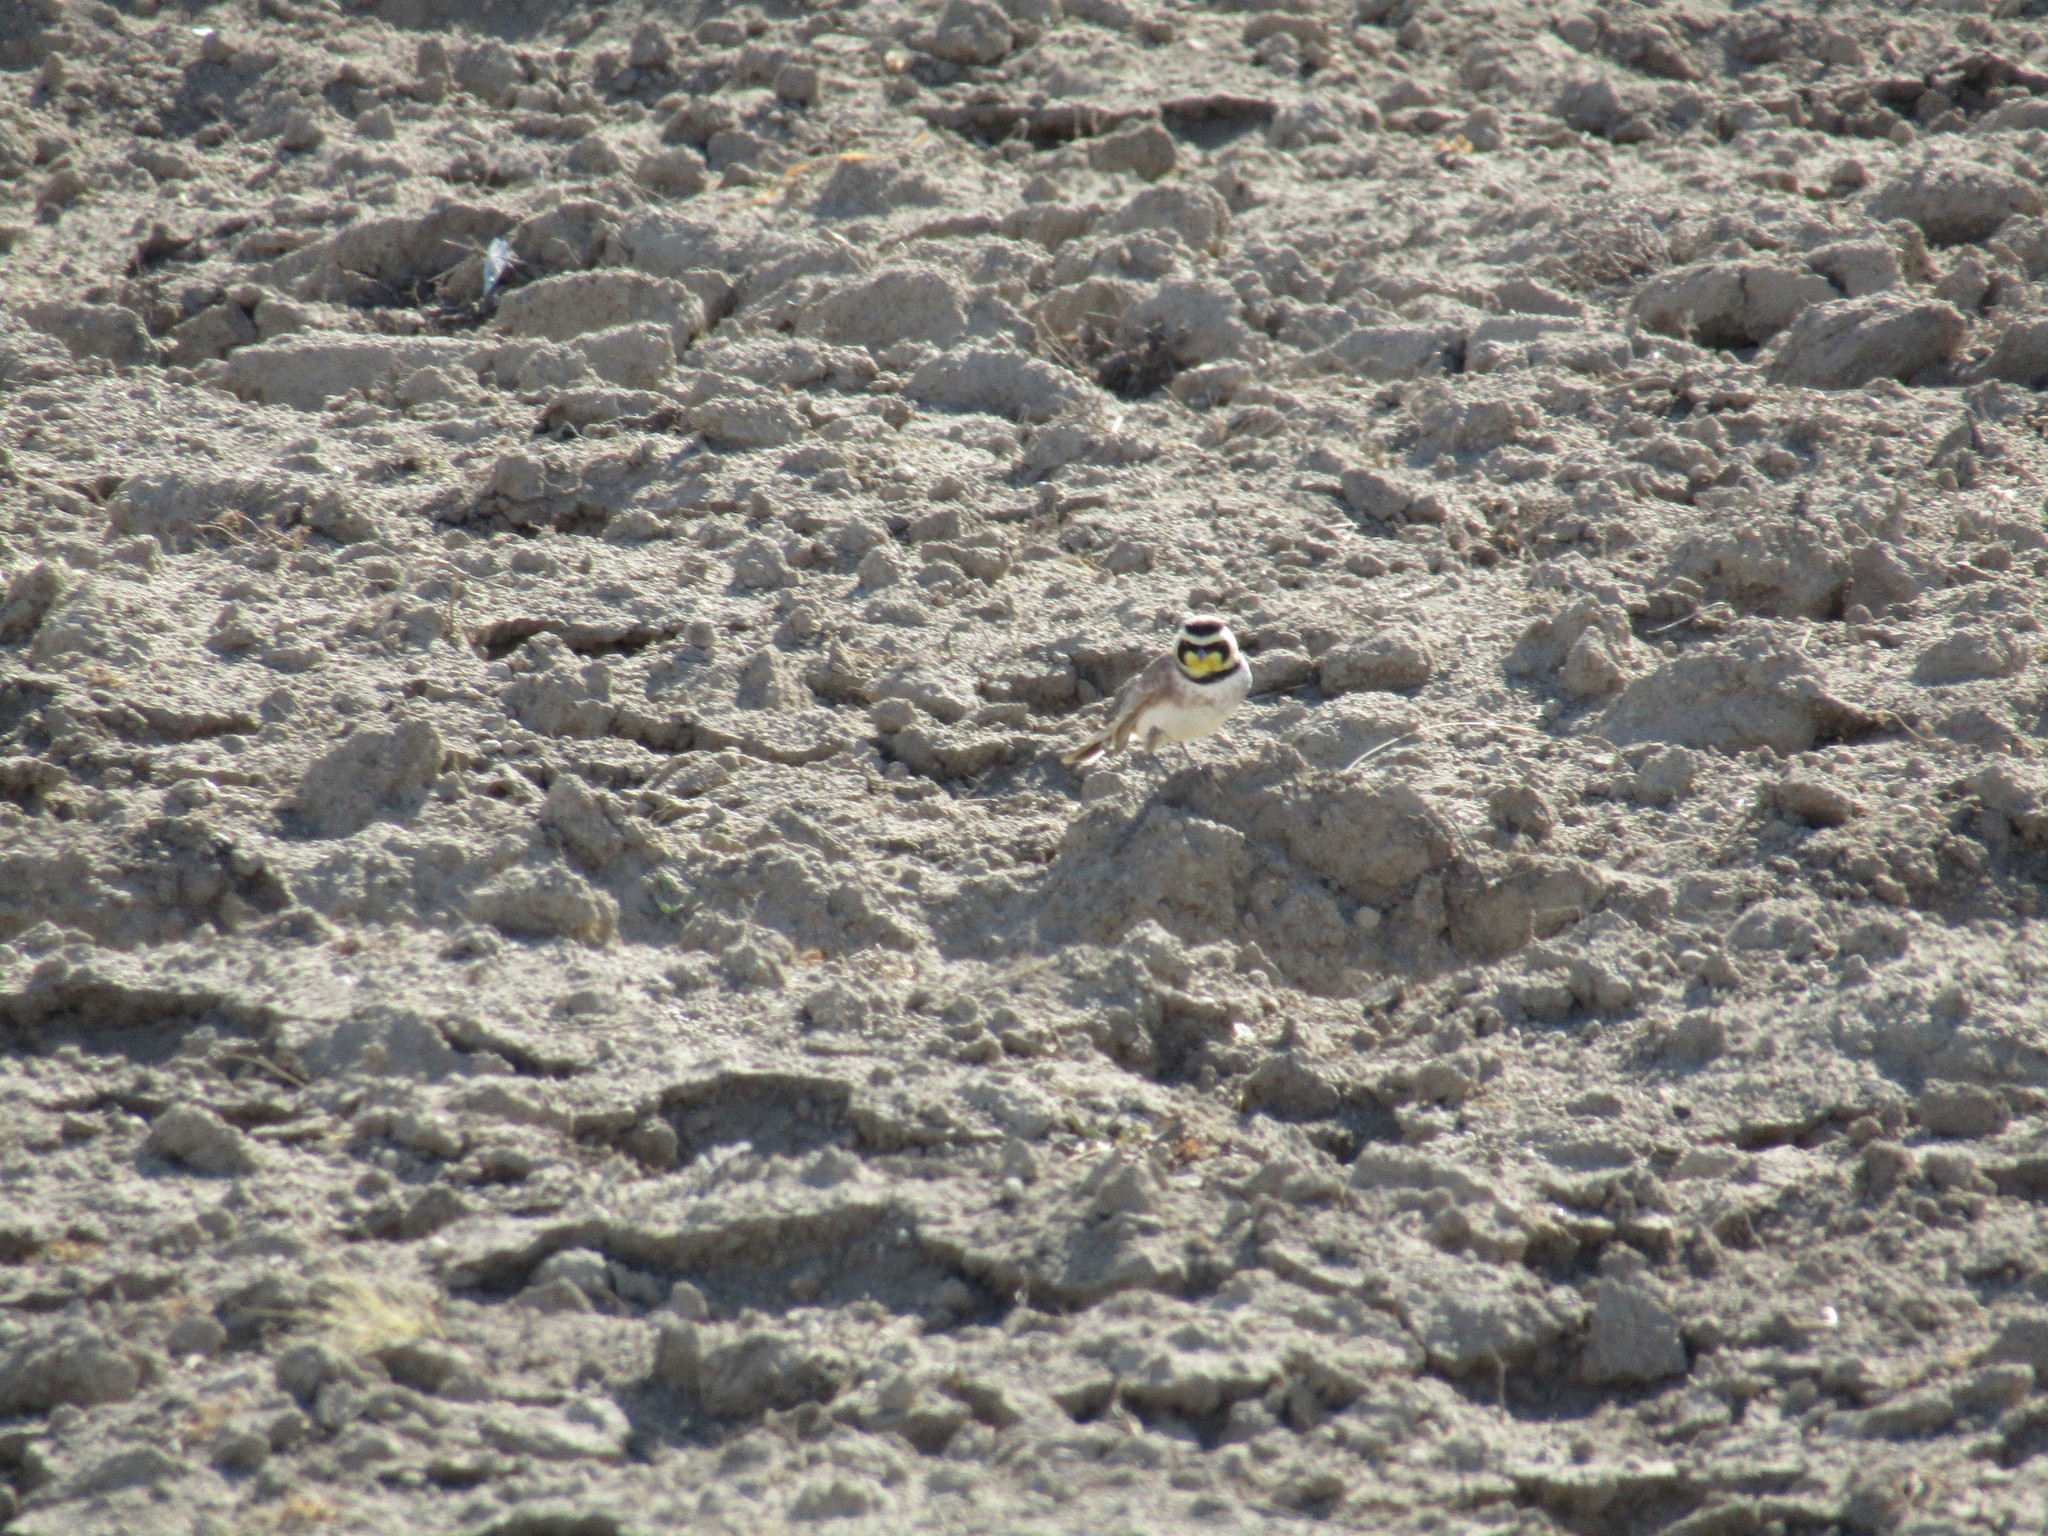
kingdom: Animalia
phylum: Chordata
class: Aves
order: Passeriformes
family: Alaudidae
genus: Eremophila
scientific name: Eremophila alpestris
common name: Horned lark
